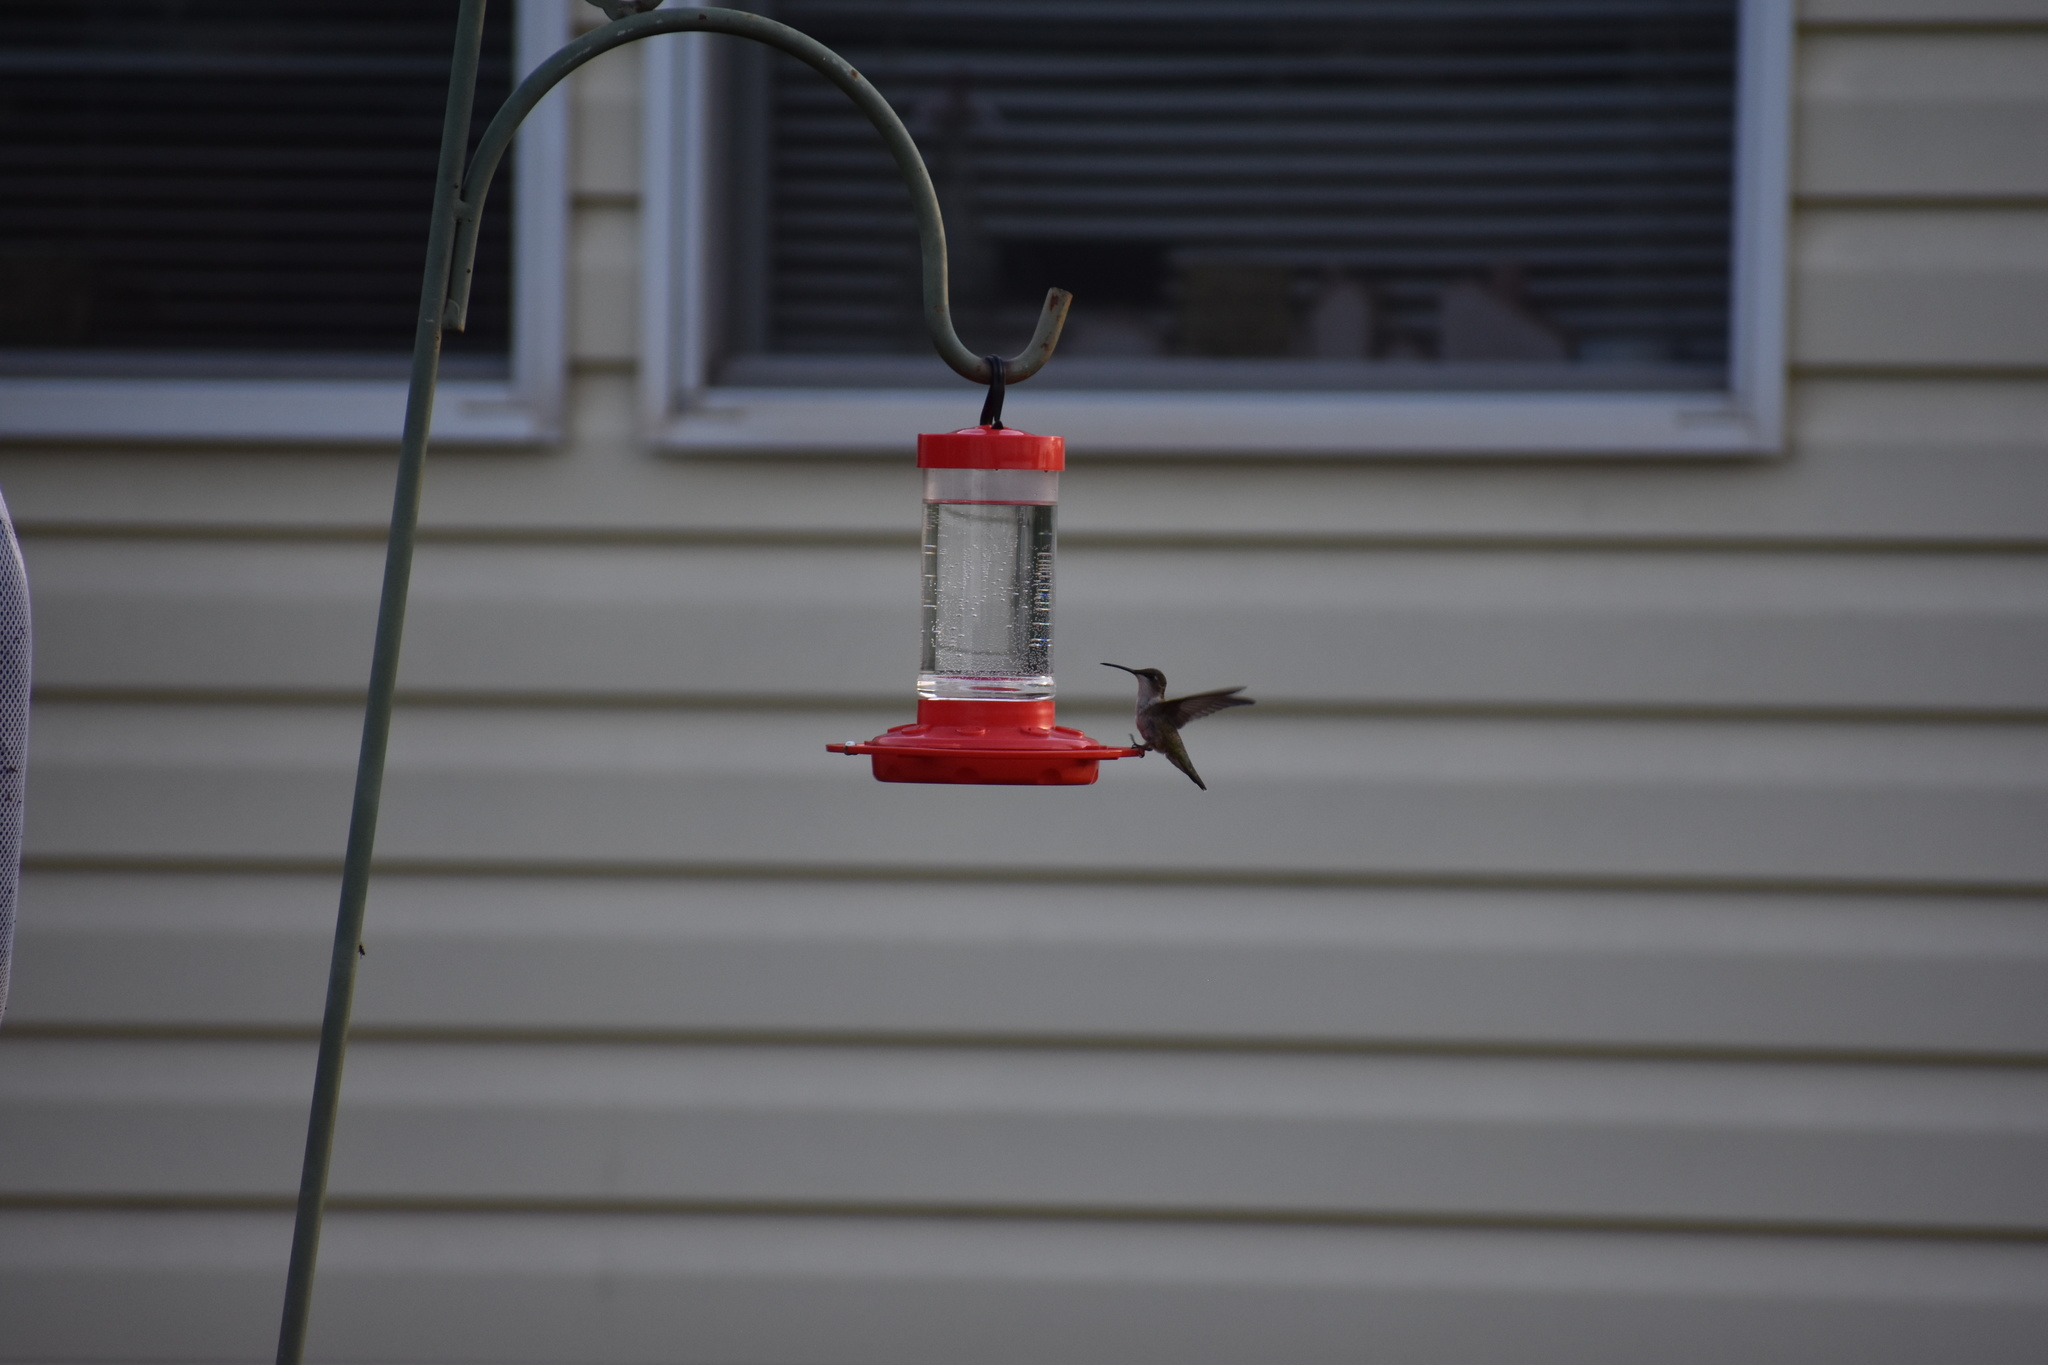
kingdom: Animalia
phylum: Chordata
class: Aves
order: Apodiformes
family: Trochilidae
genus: Archilochus
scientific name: Archilochus colubris
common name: Ruby-throated hummingbird
